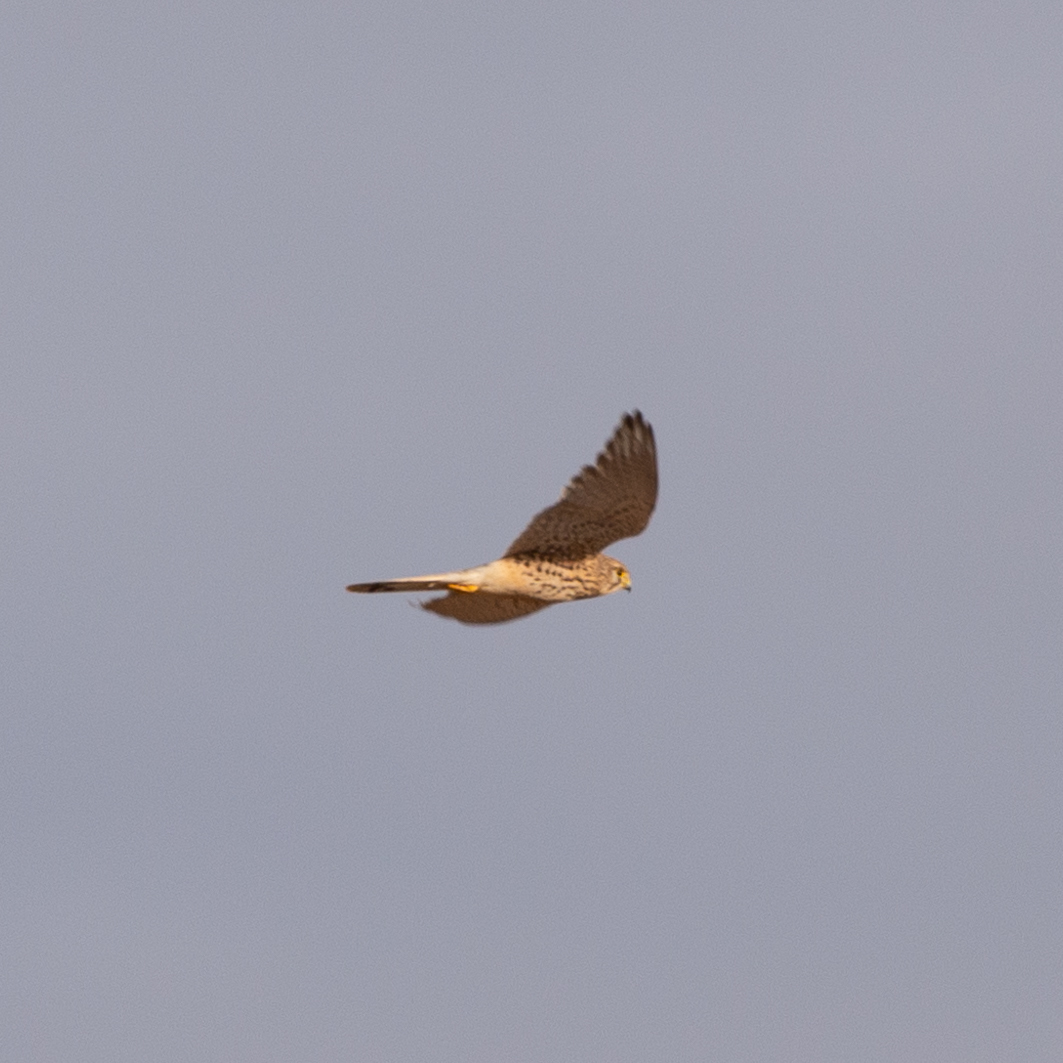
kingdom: Animalia
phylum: Chordata
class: Aves
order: Falconiformes
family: Falconidae
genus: Falco
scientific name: Falco tinnunculus
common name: Common kestrel
